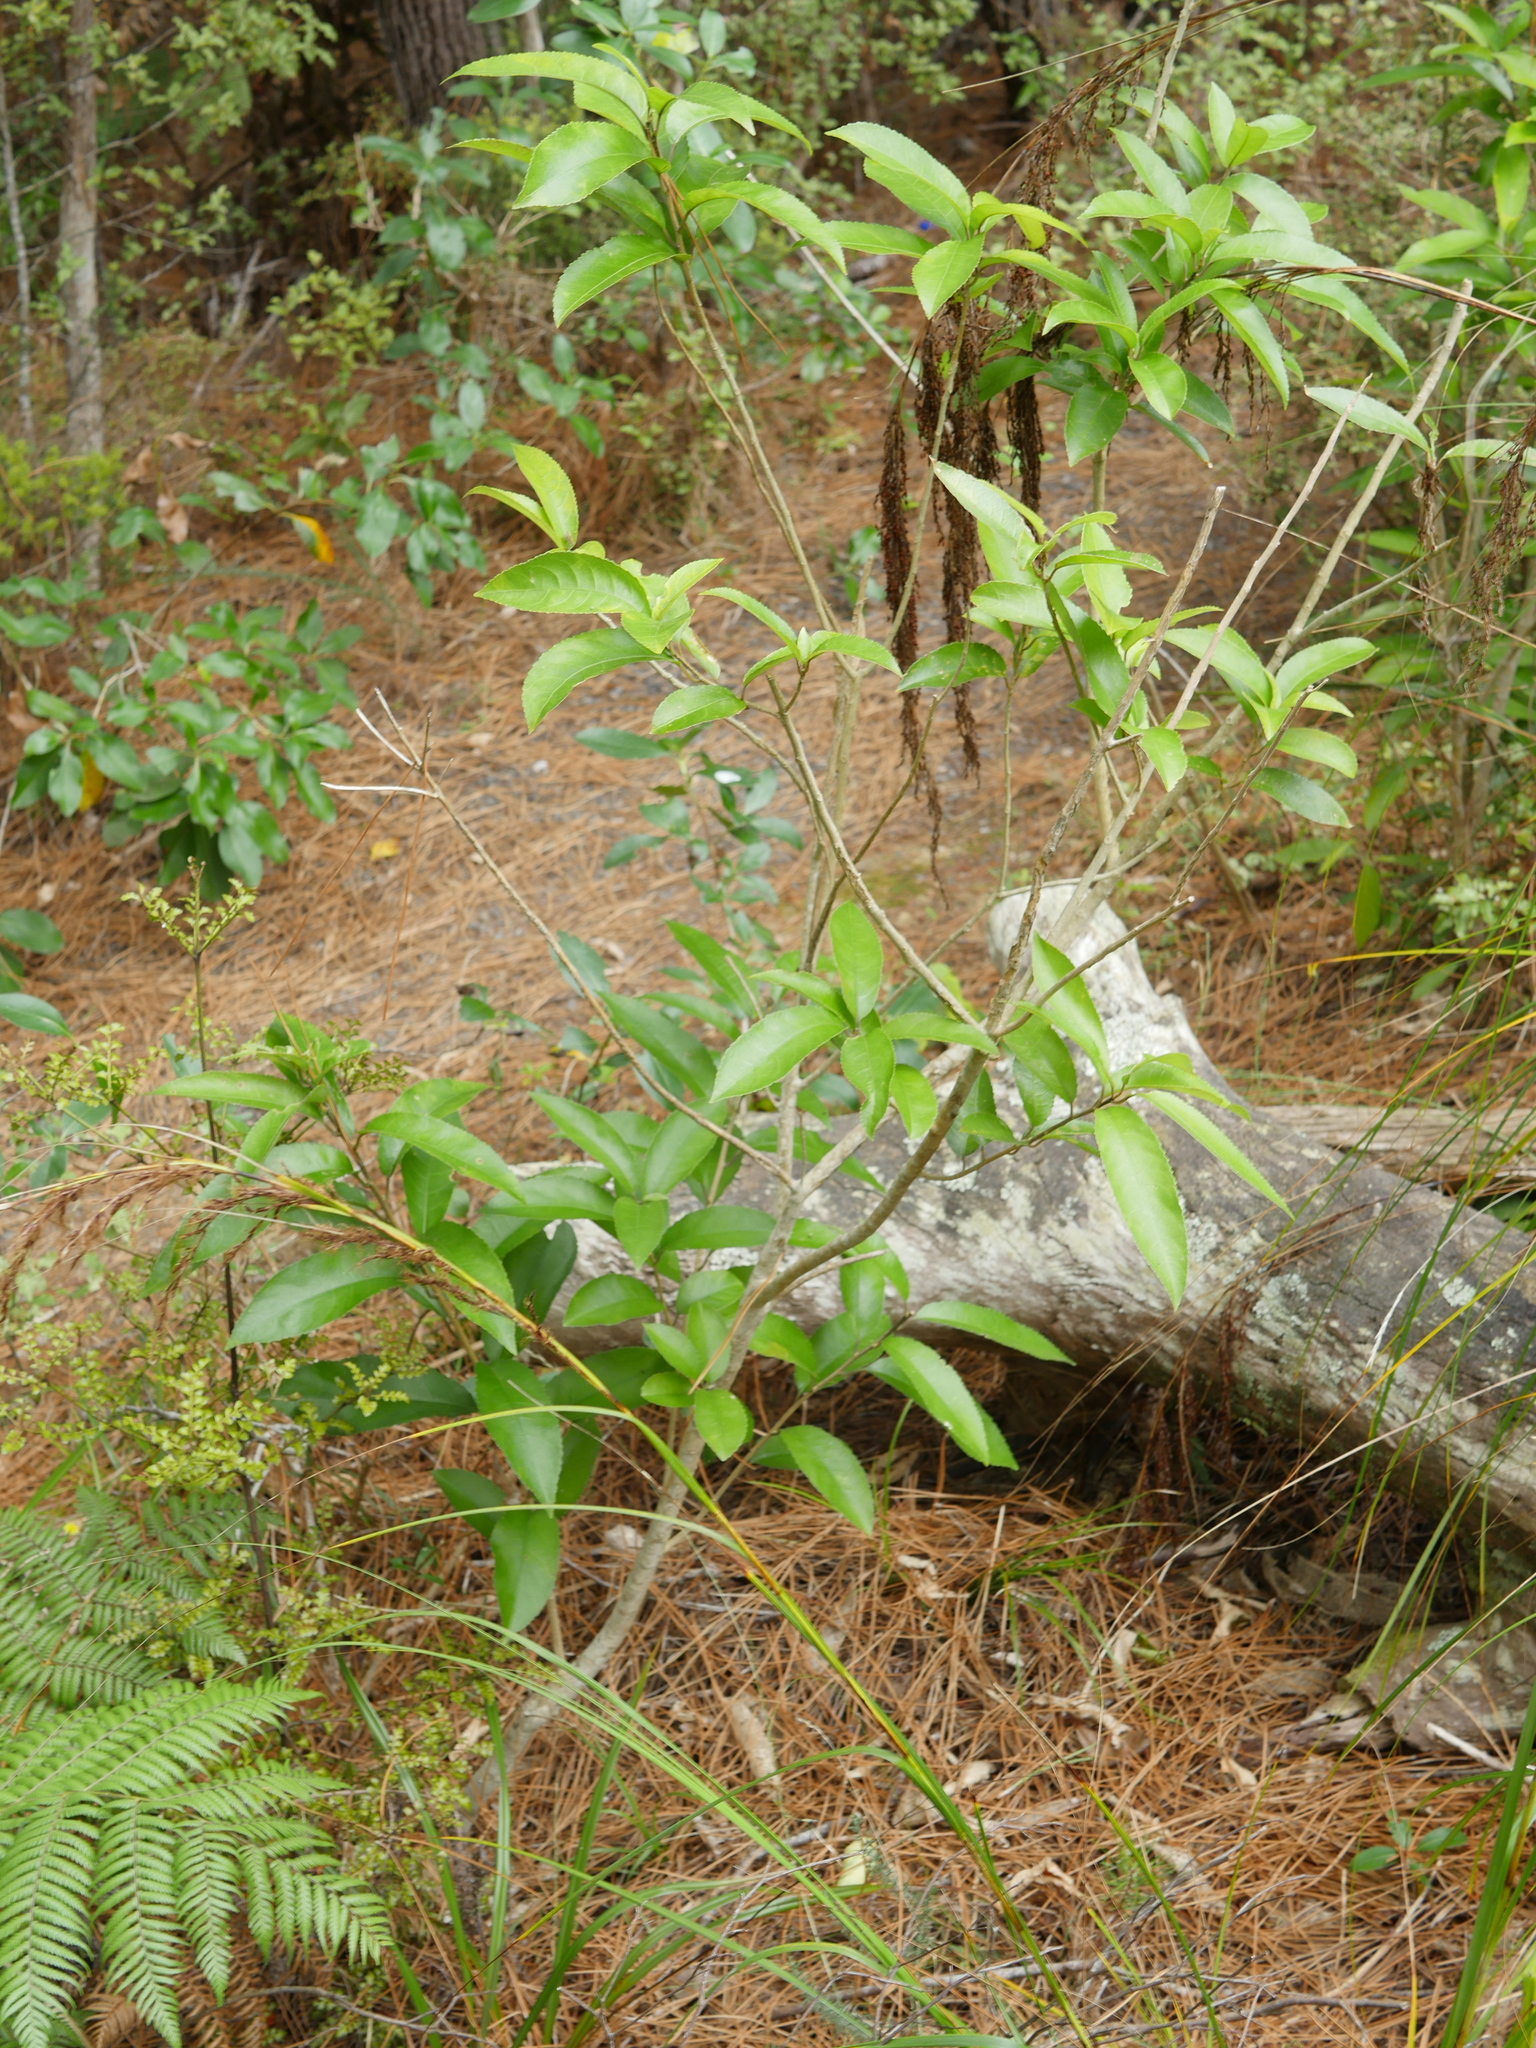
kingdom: Plantae
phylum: Tracheophyta
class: Magnoliopsida
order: Malpighiales
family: Violaceae
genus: Melicytus
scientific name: Melicytus ramiflorus
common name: Mahoe
